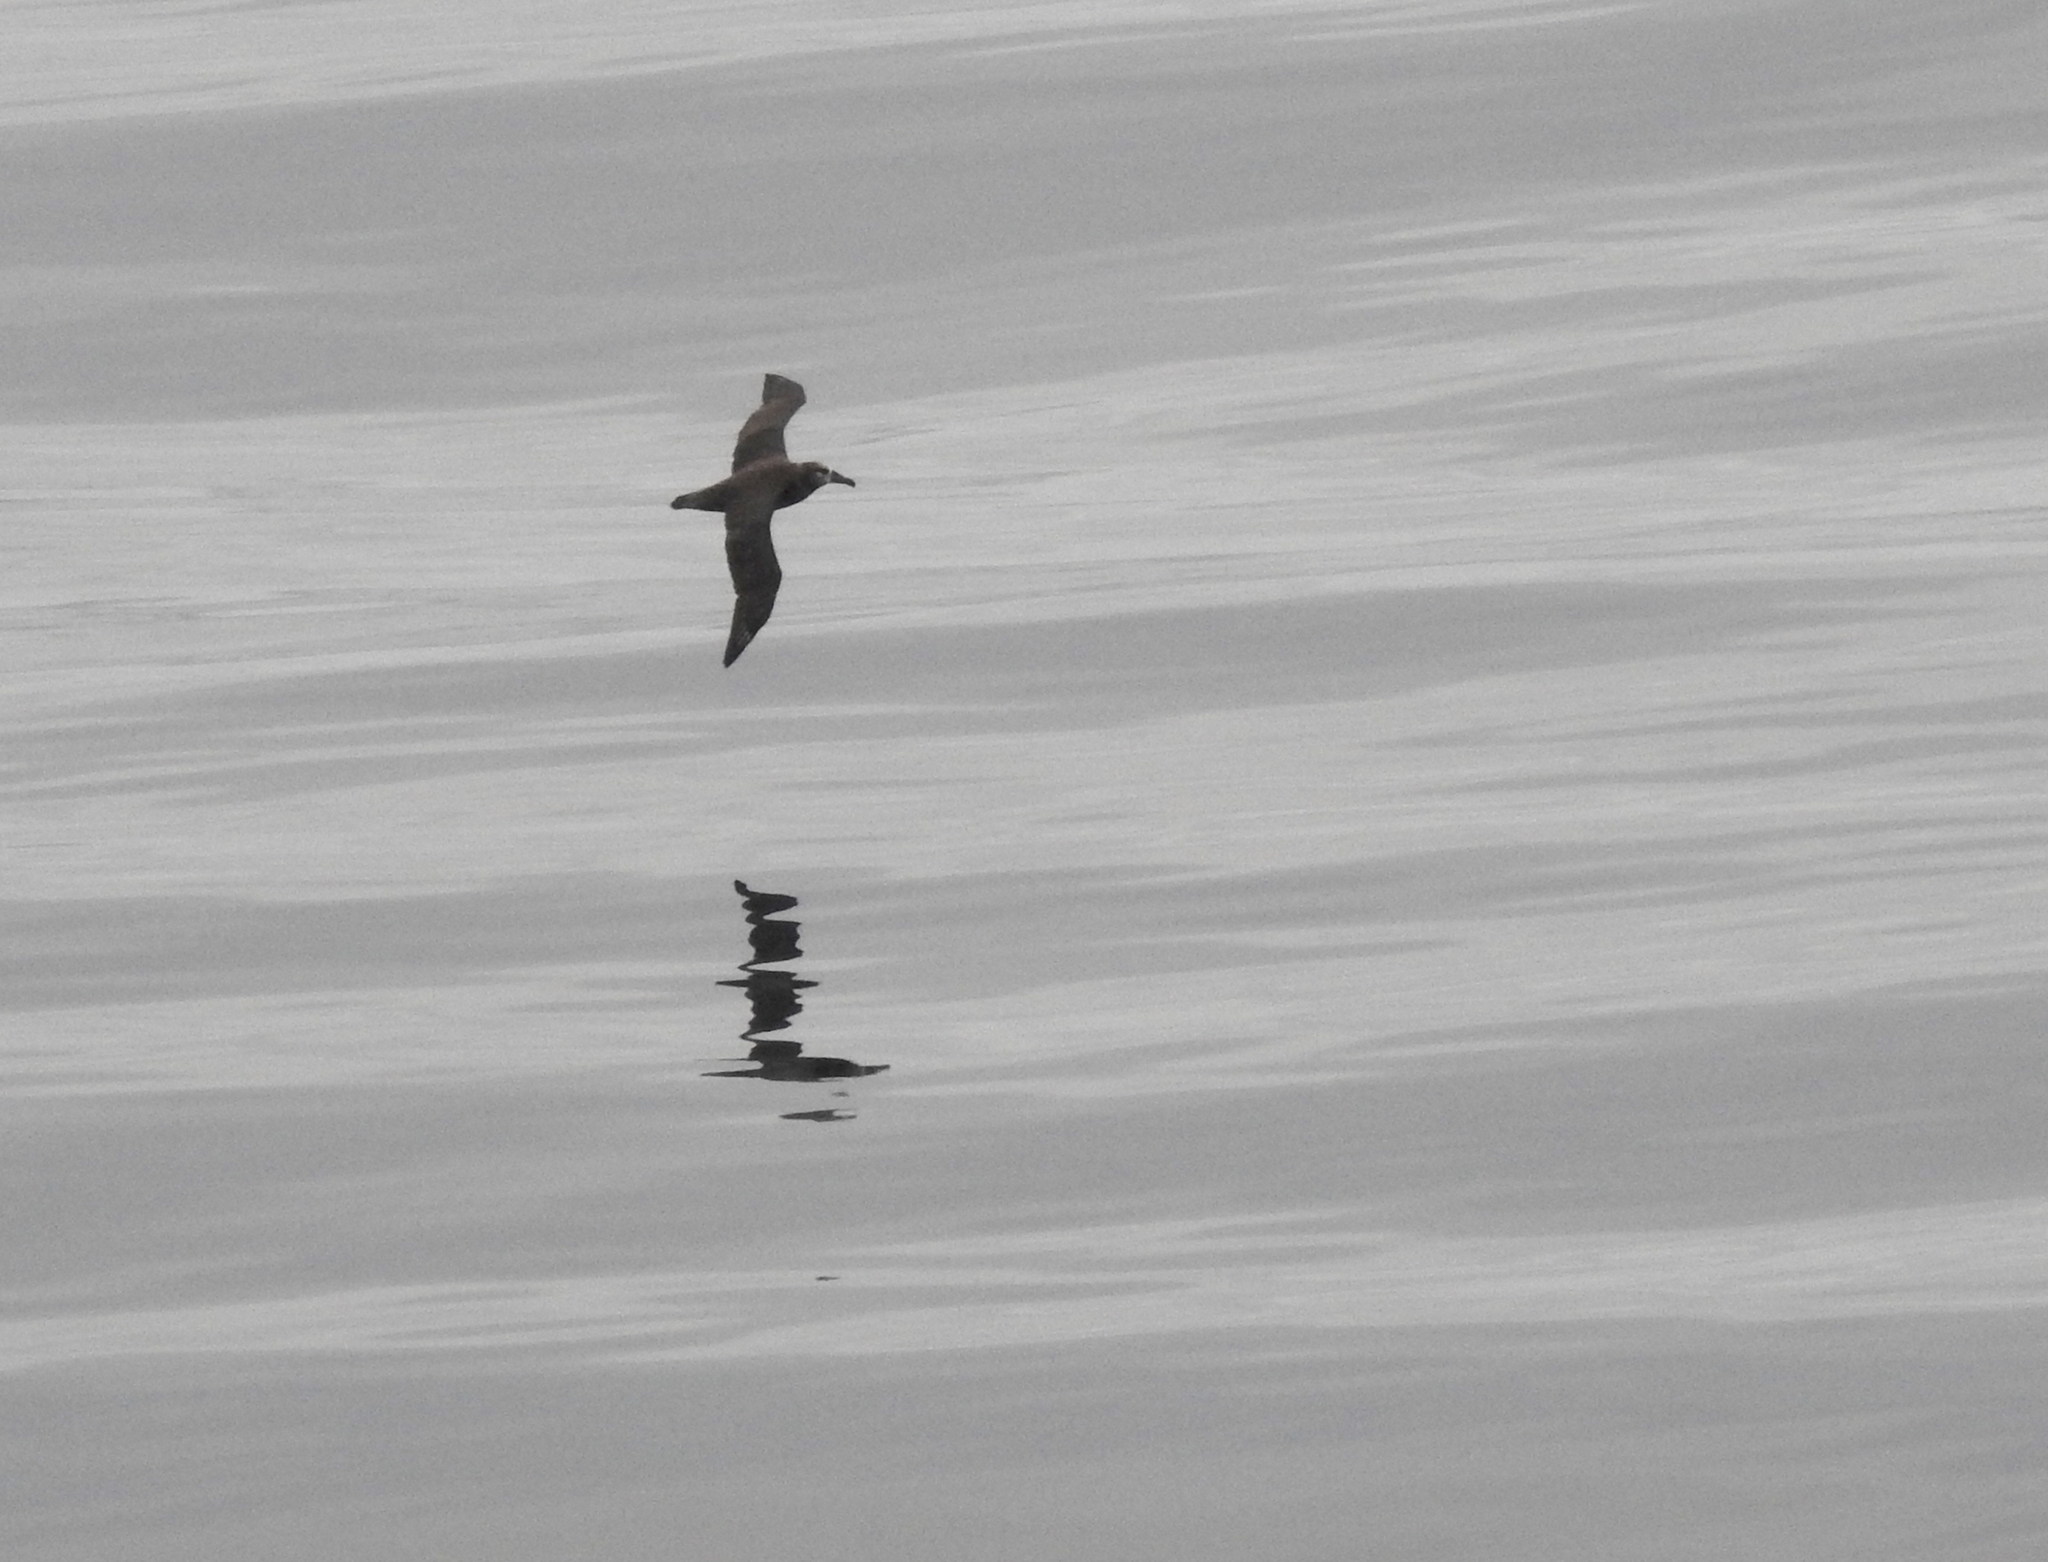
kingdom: Animalia
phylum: Chordata
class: Aves
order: Procellariiformes
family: Diomedeidae
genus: Phoebastria
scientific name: Phoebastria nigripes
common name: Black-footed albatross
